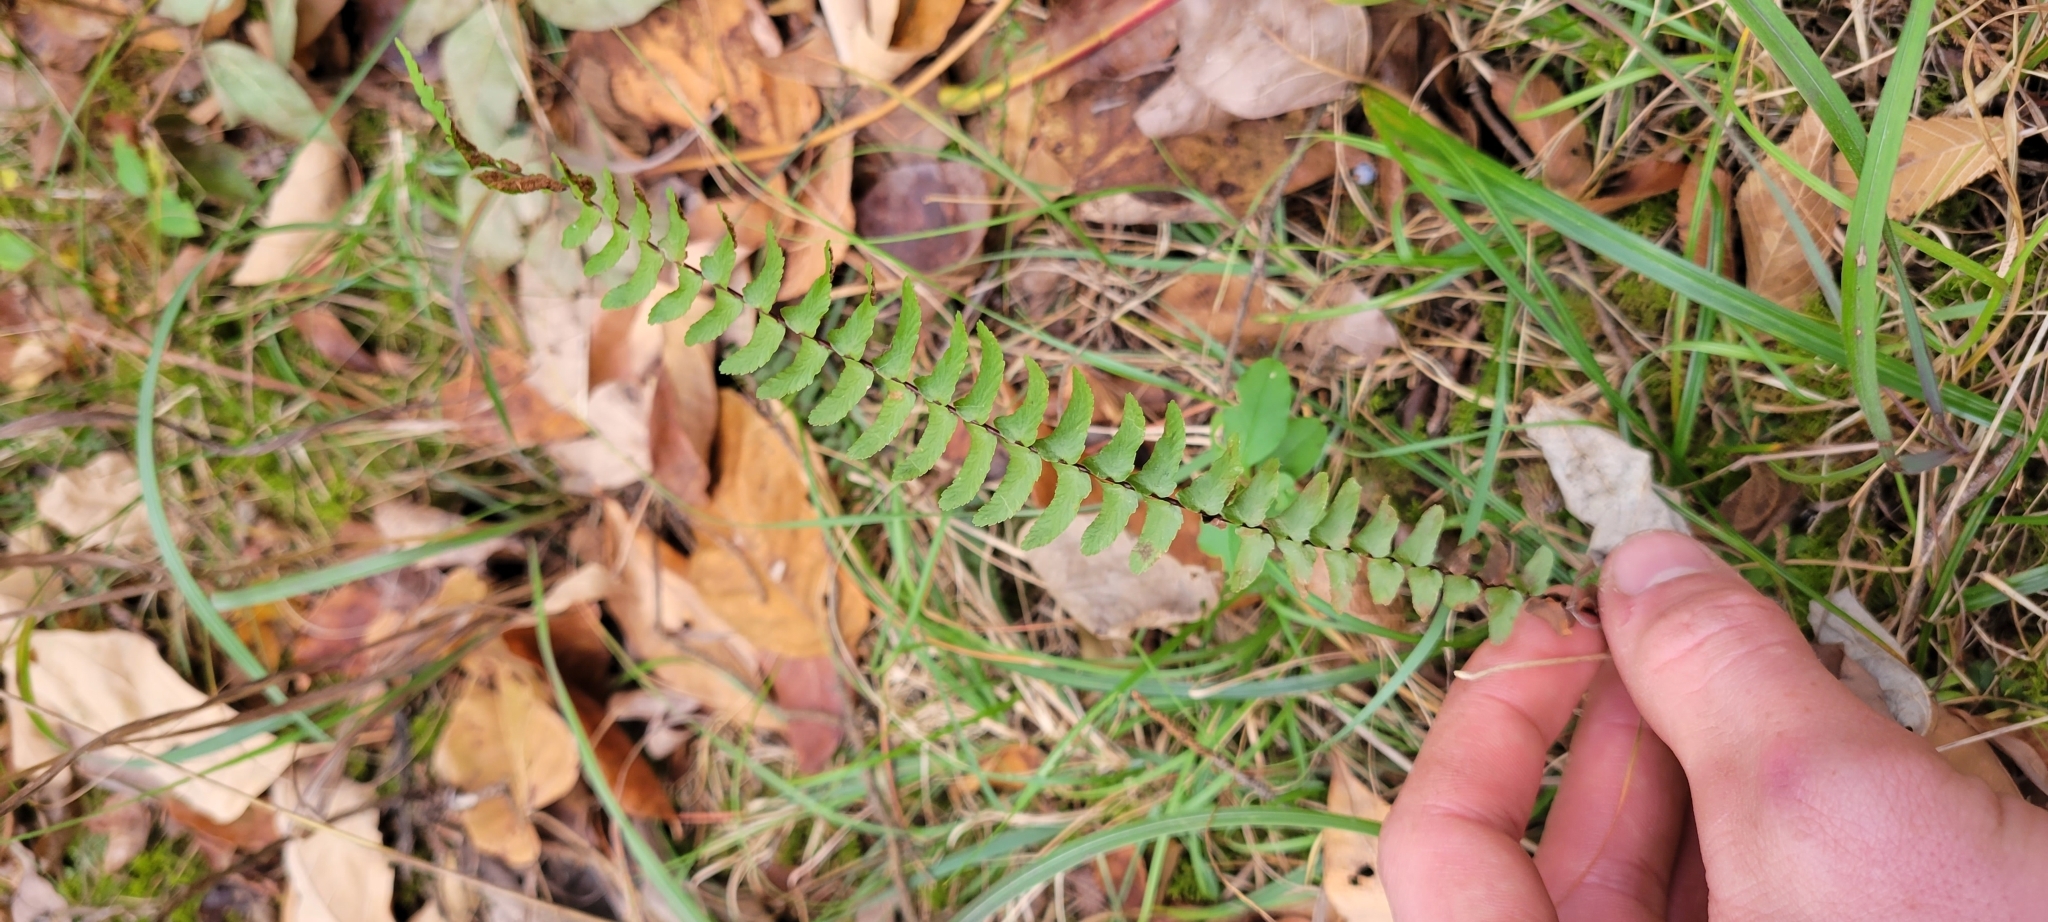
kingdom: Plantae
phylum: Tracheophyta
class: Polypodiopsida
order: Polypodiales
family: Aspleniaceae
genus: Asplenium
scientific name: Asplenium platyneuron
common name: Ebony spleenwort
